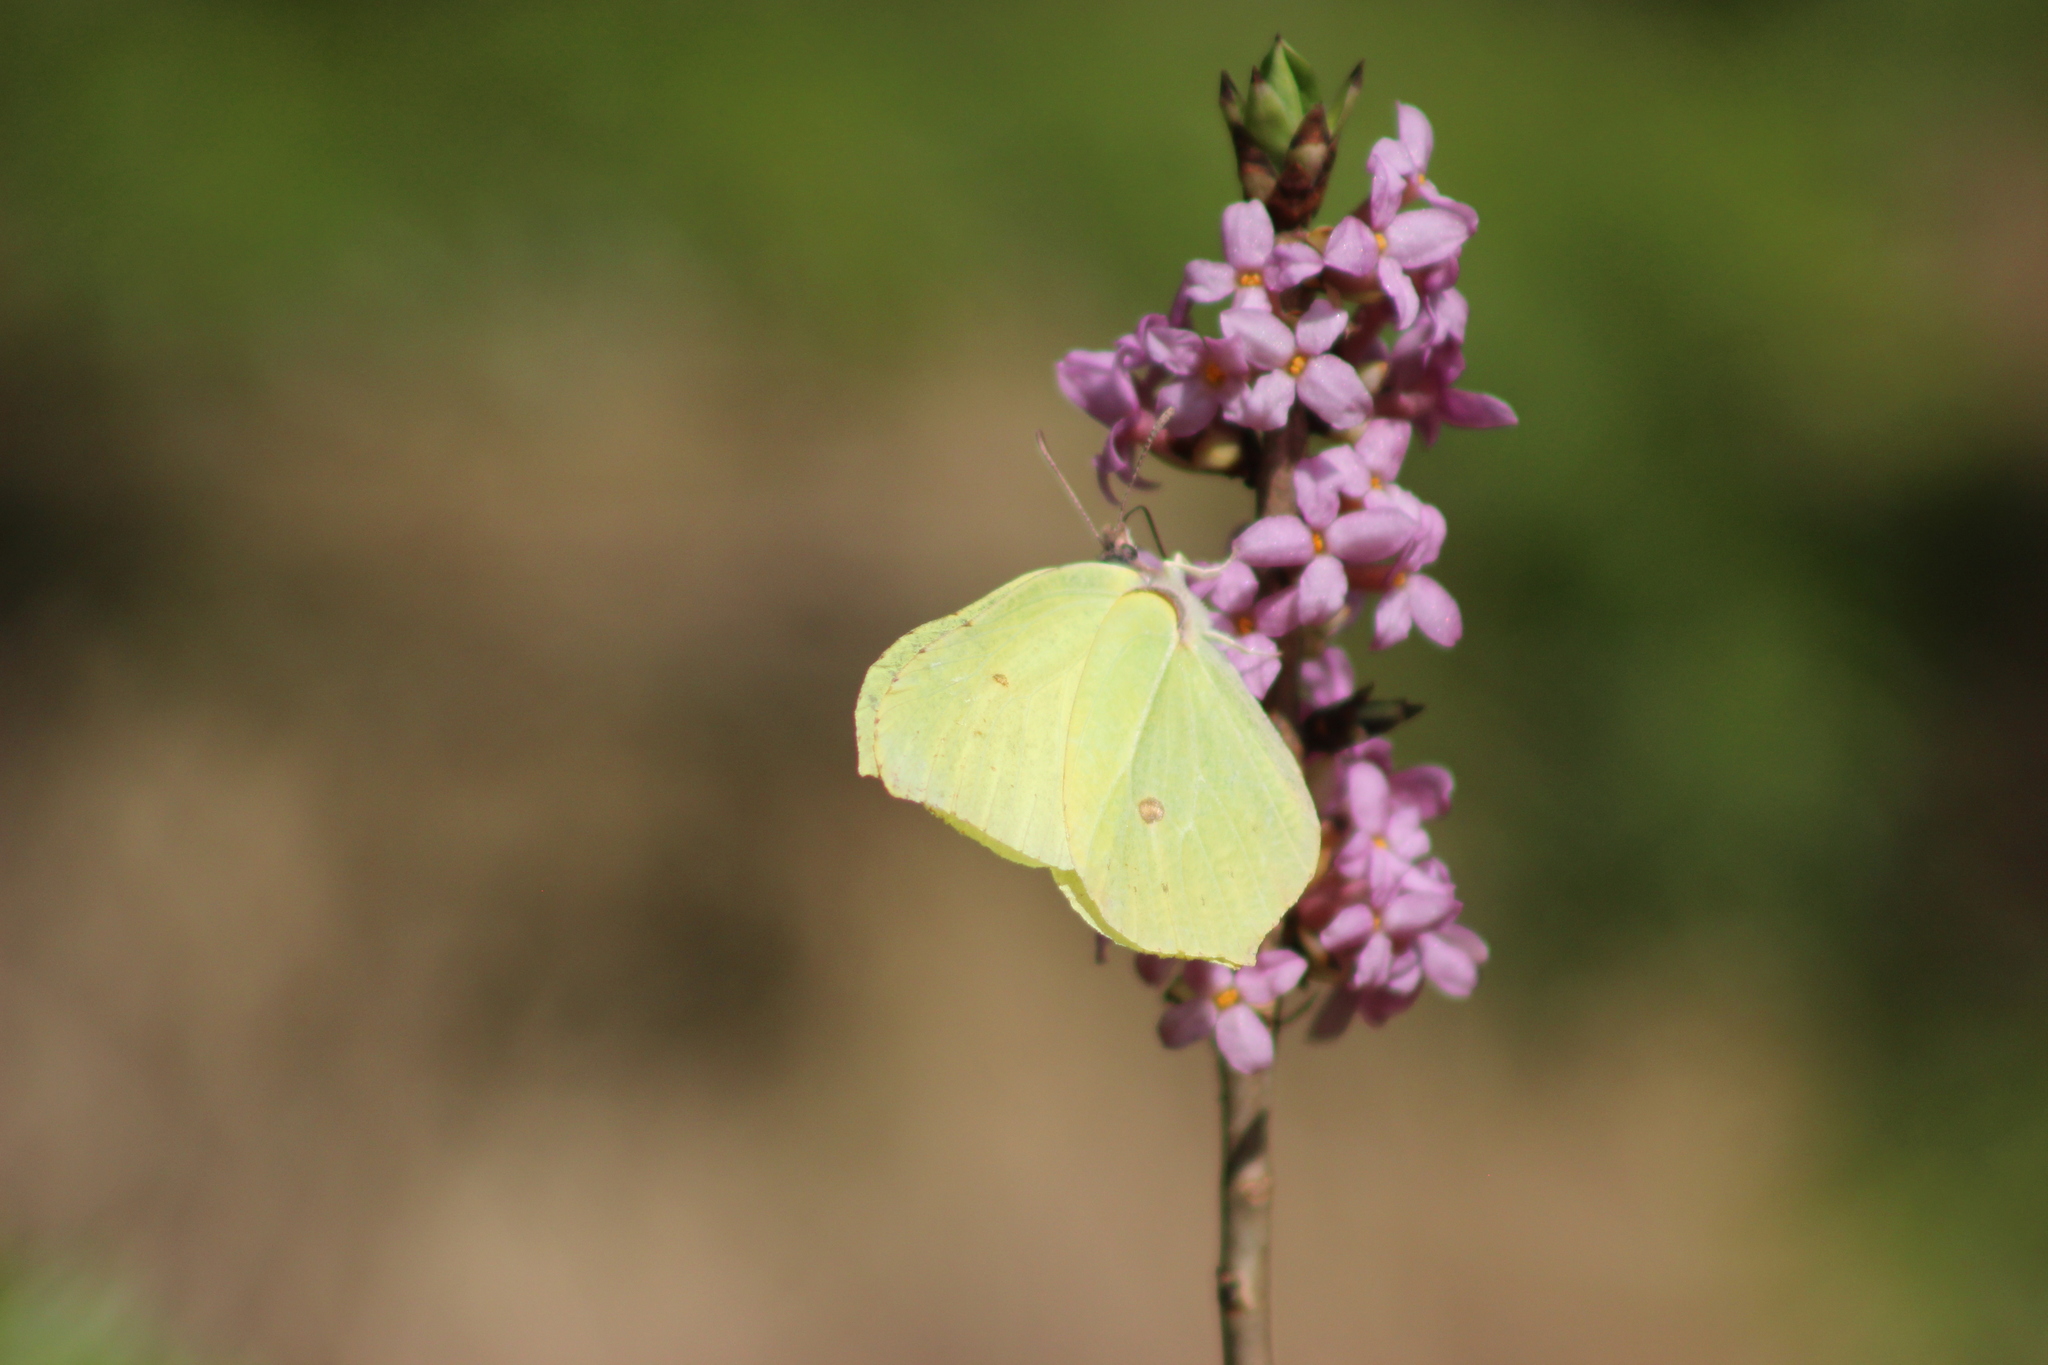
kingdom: Animalia
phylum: Arthropoda
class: Insecta
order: Lepidoptera
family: Pieridae
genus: Gonepteryx
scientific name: Gonepteryx rhamni
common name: Brimstone
